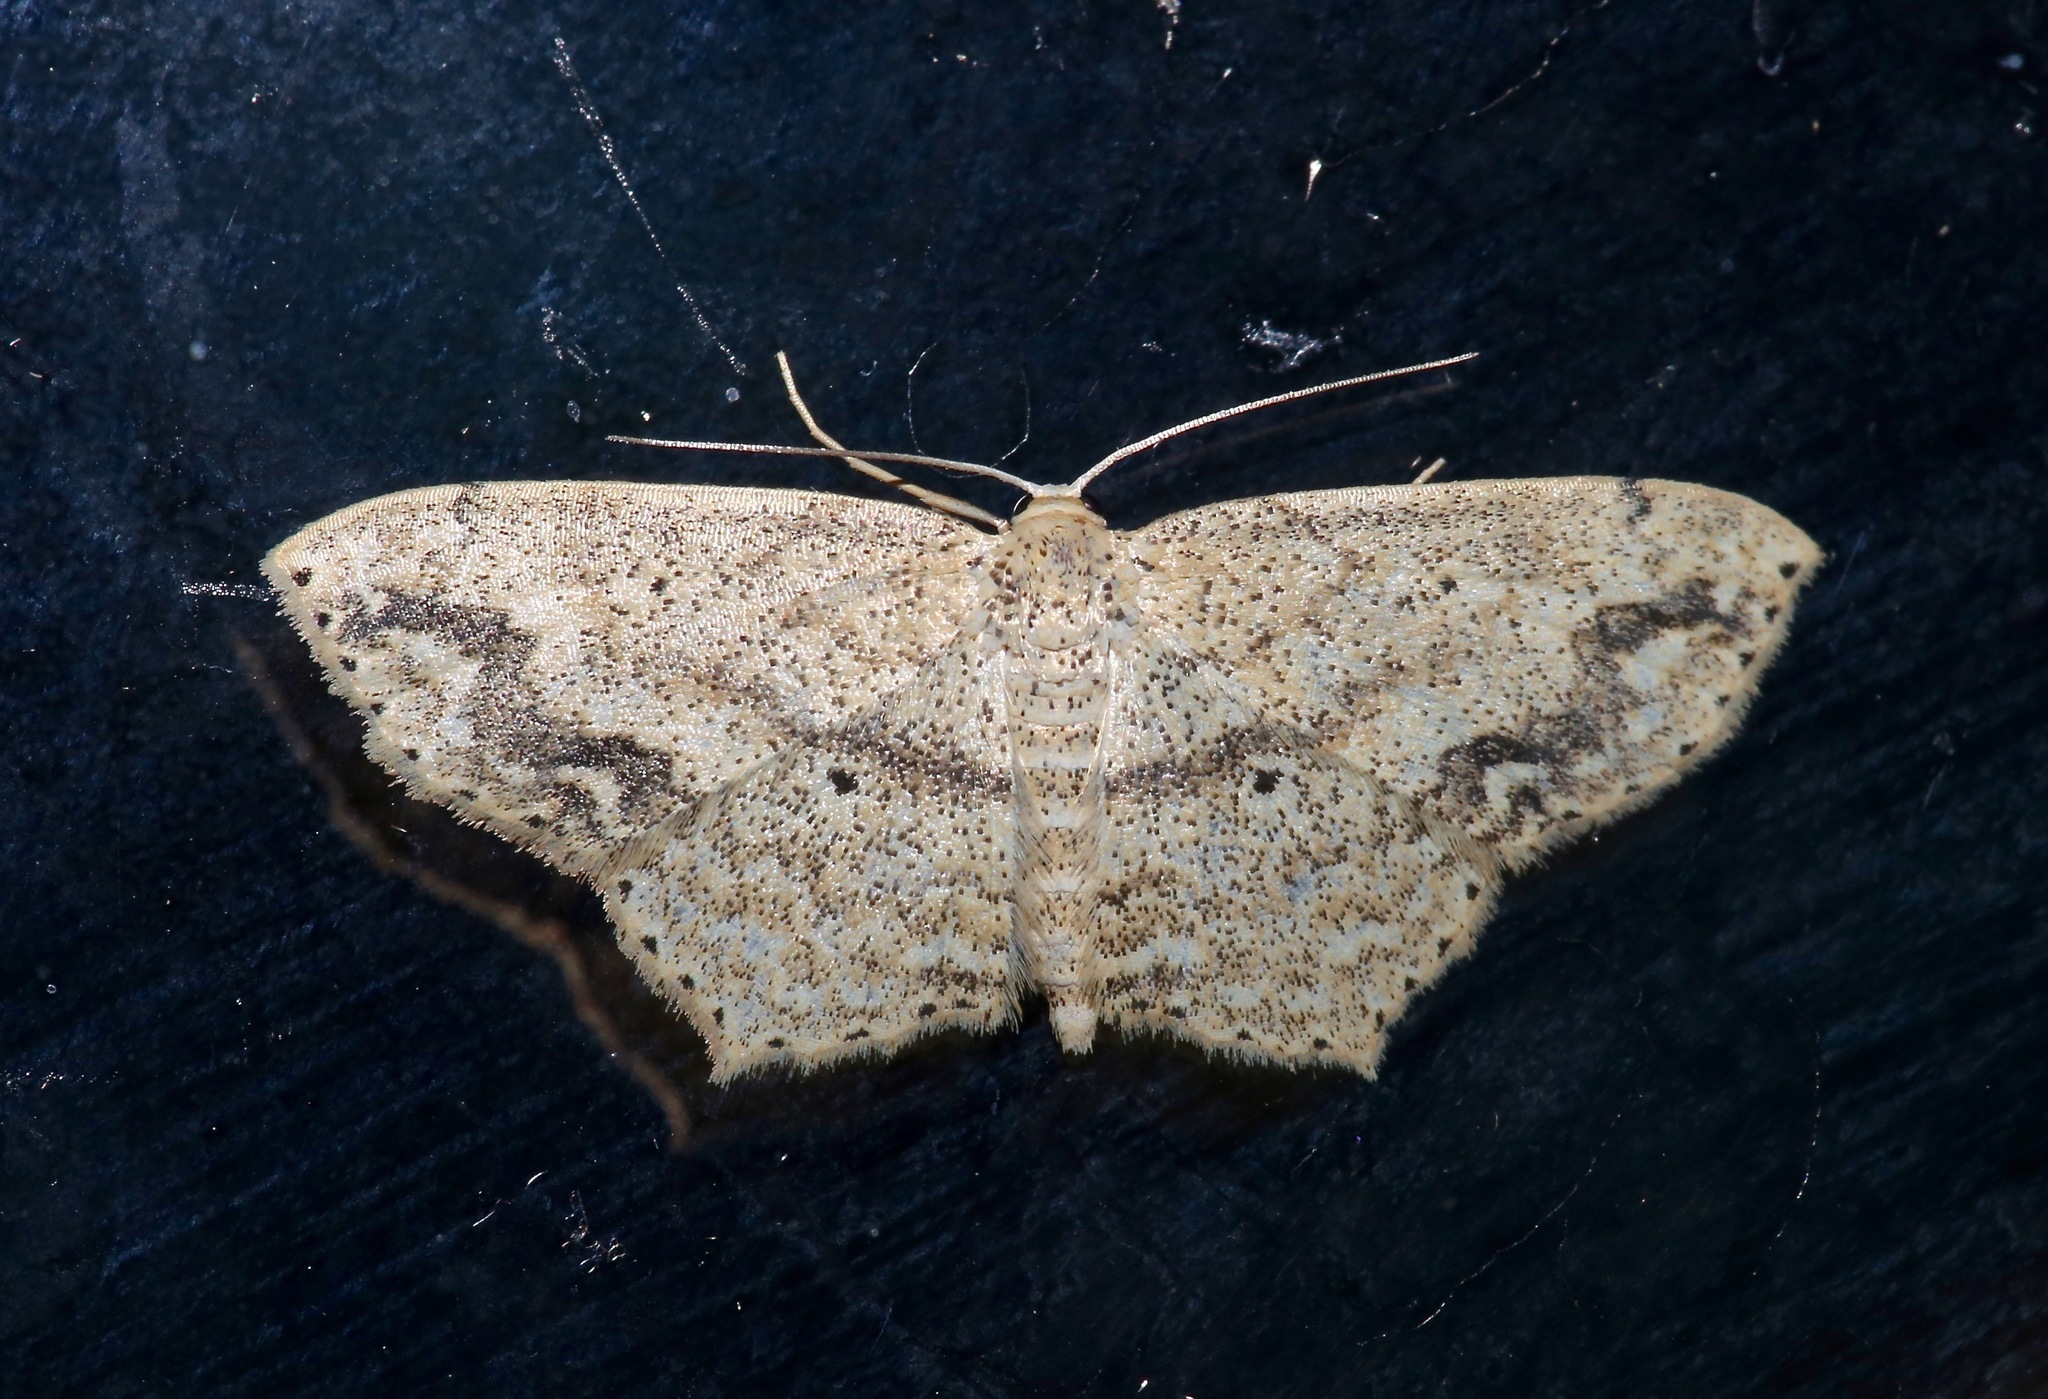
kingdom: Animalia
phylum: Arthropoda
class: Insecta
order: Lepidoptera
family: Geometridae
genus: Scopula
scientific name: Scopula compensata
